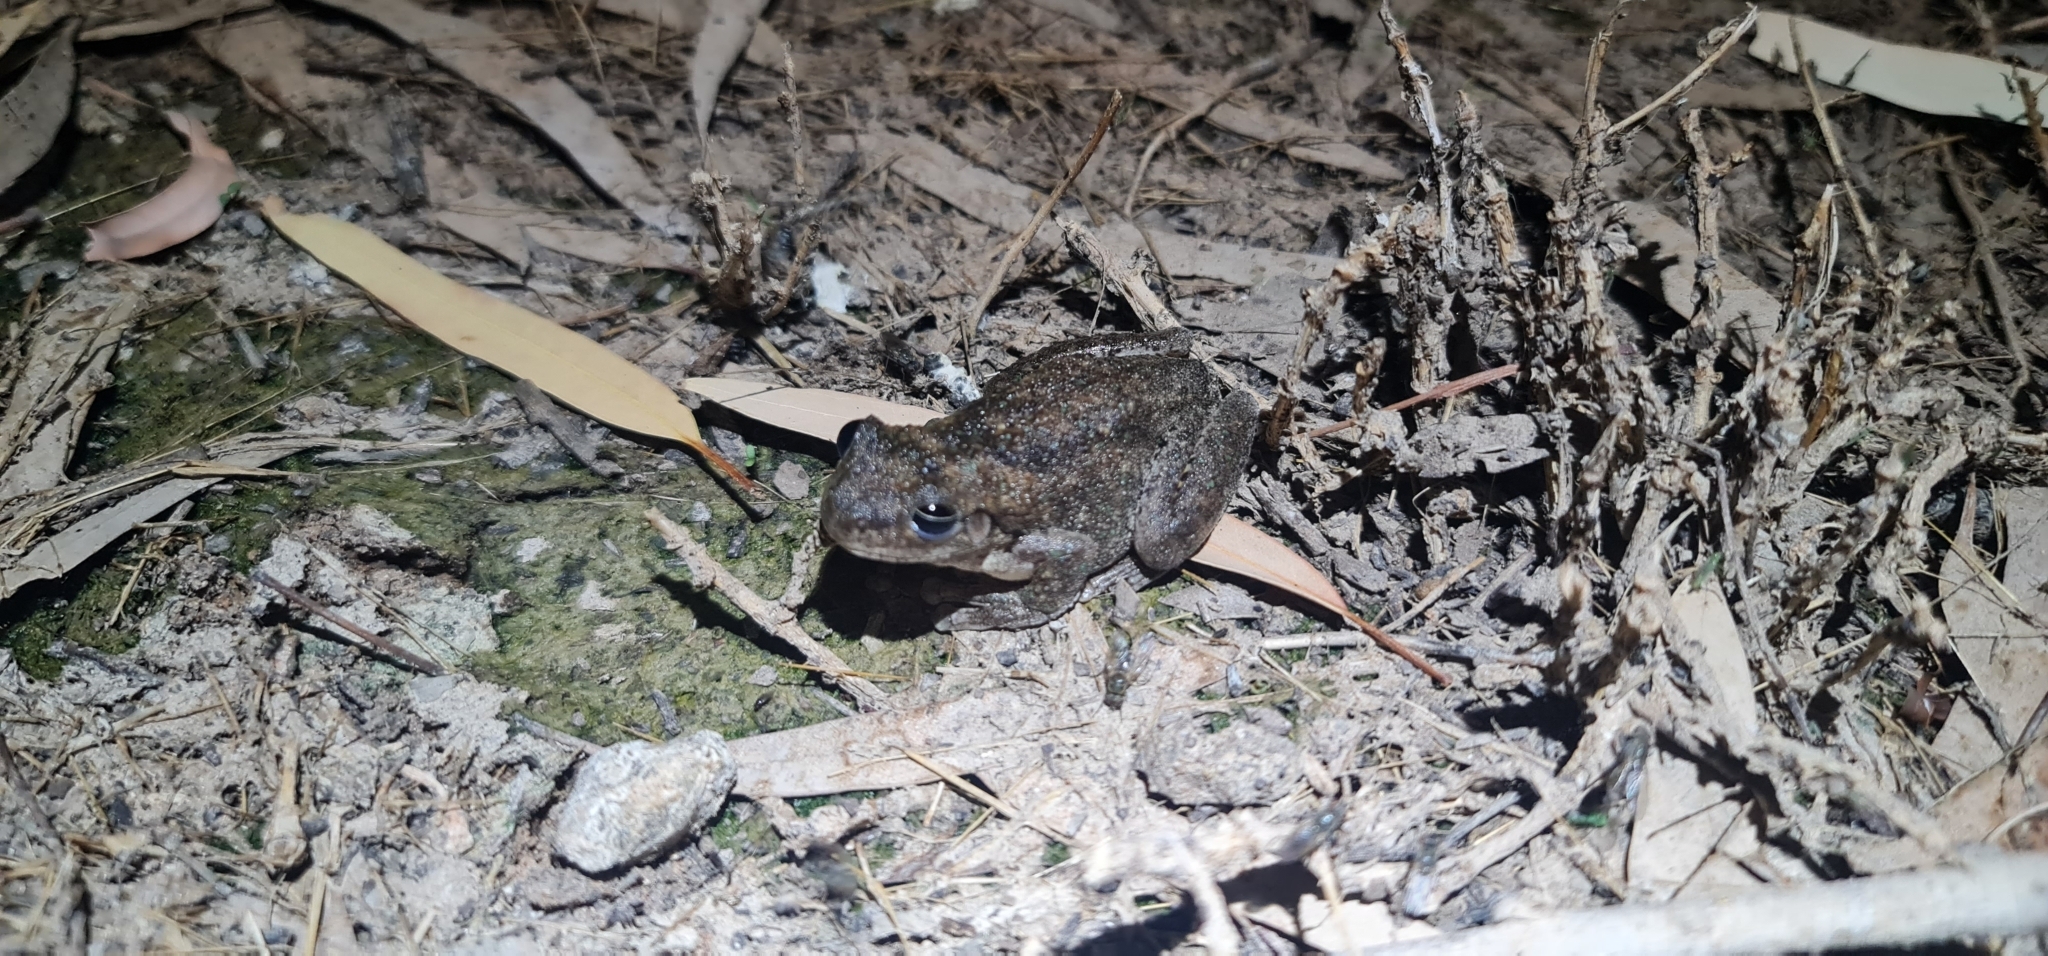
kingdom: Animalia
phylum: Chordata
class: Amphibia
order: Anura
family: Pelodryadidae
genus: Litoria
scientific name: Litoria peronii
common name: Emerald spotted treefrog
